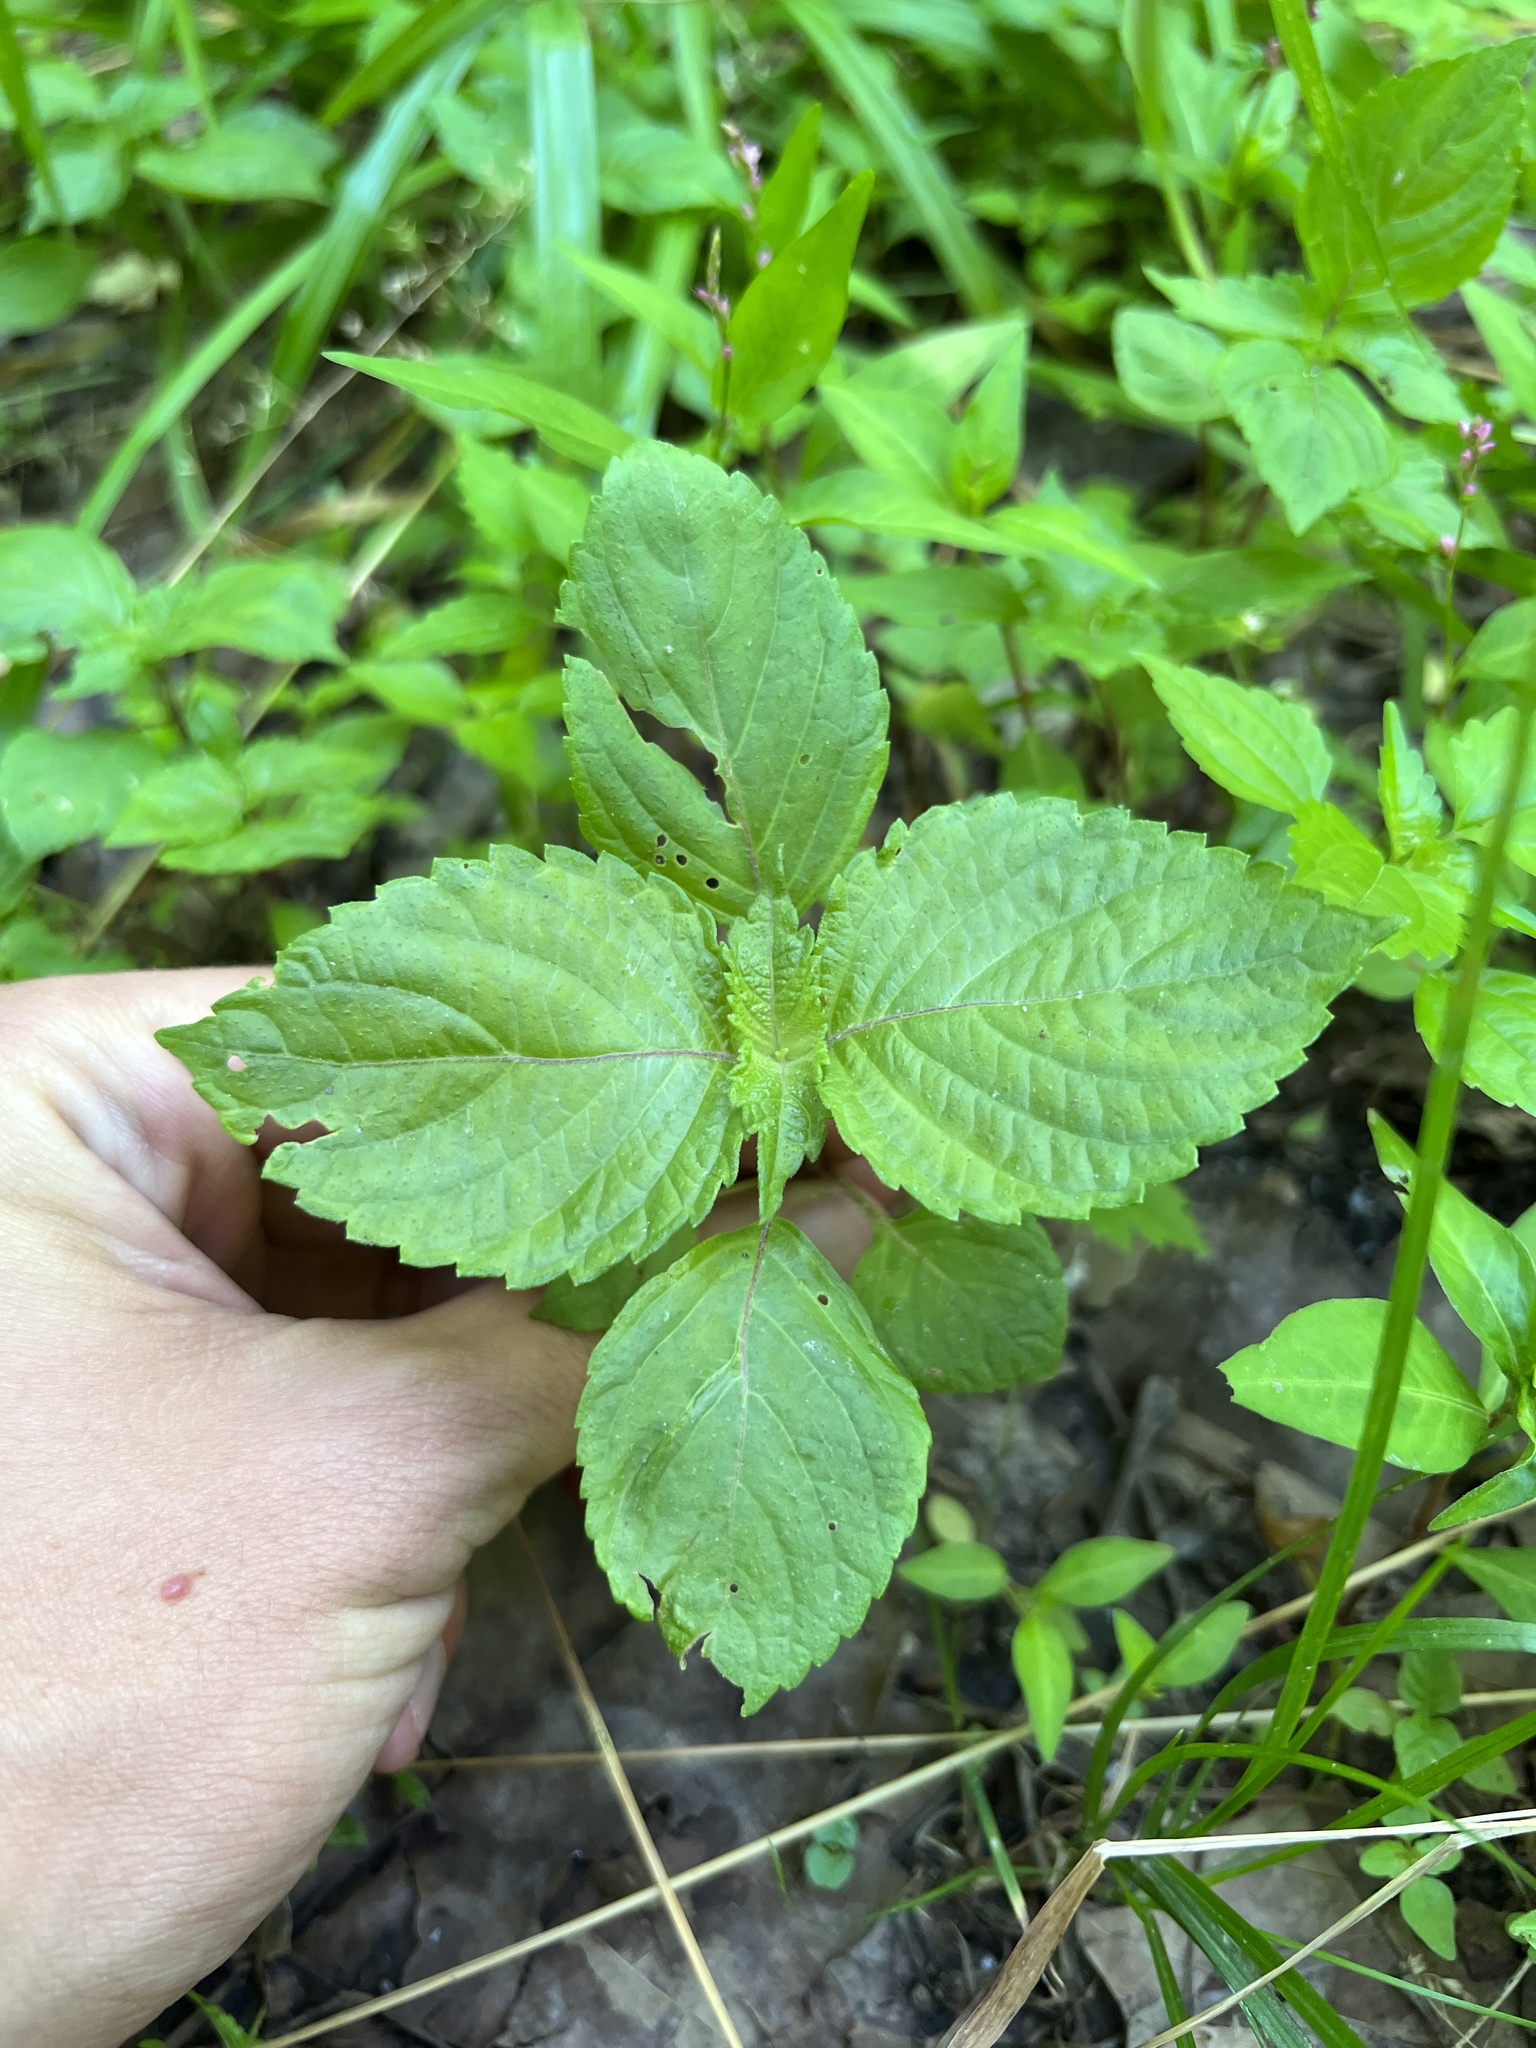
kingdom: Plantae
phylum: Tracheophyta
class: Magnoliopsida
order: Lamiales
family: Lamiaceae
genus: Perilla
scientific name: Perilla frutescens
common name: Perilla
